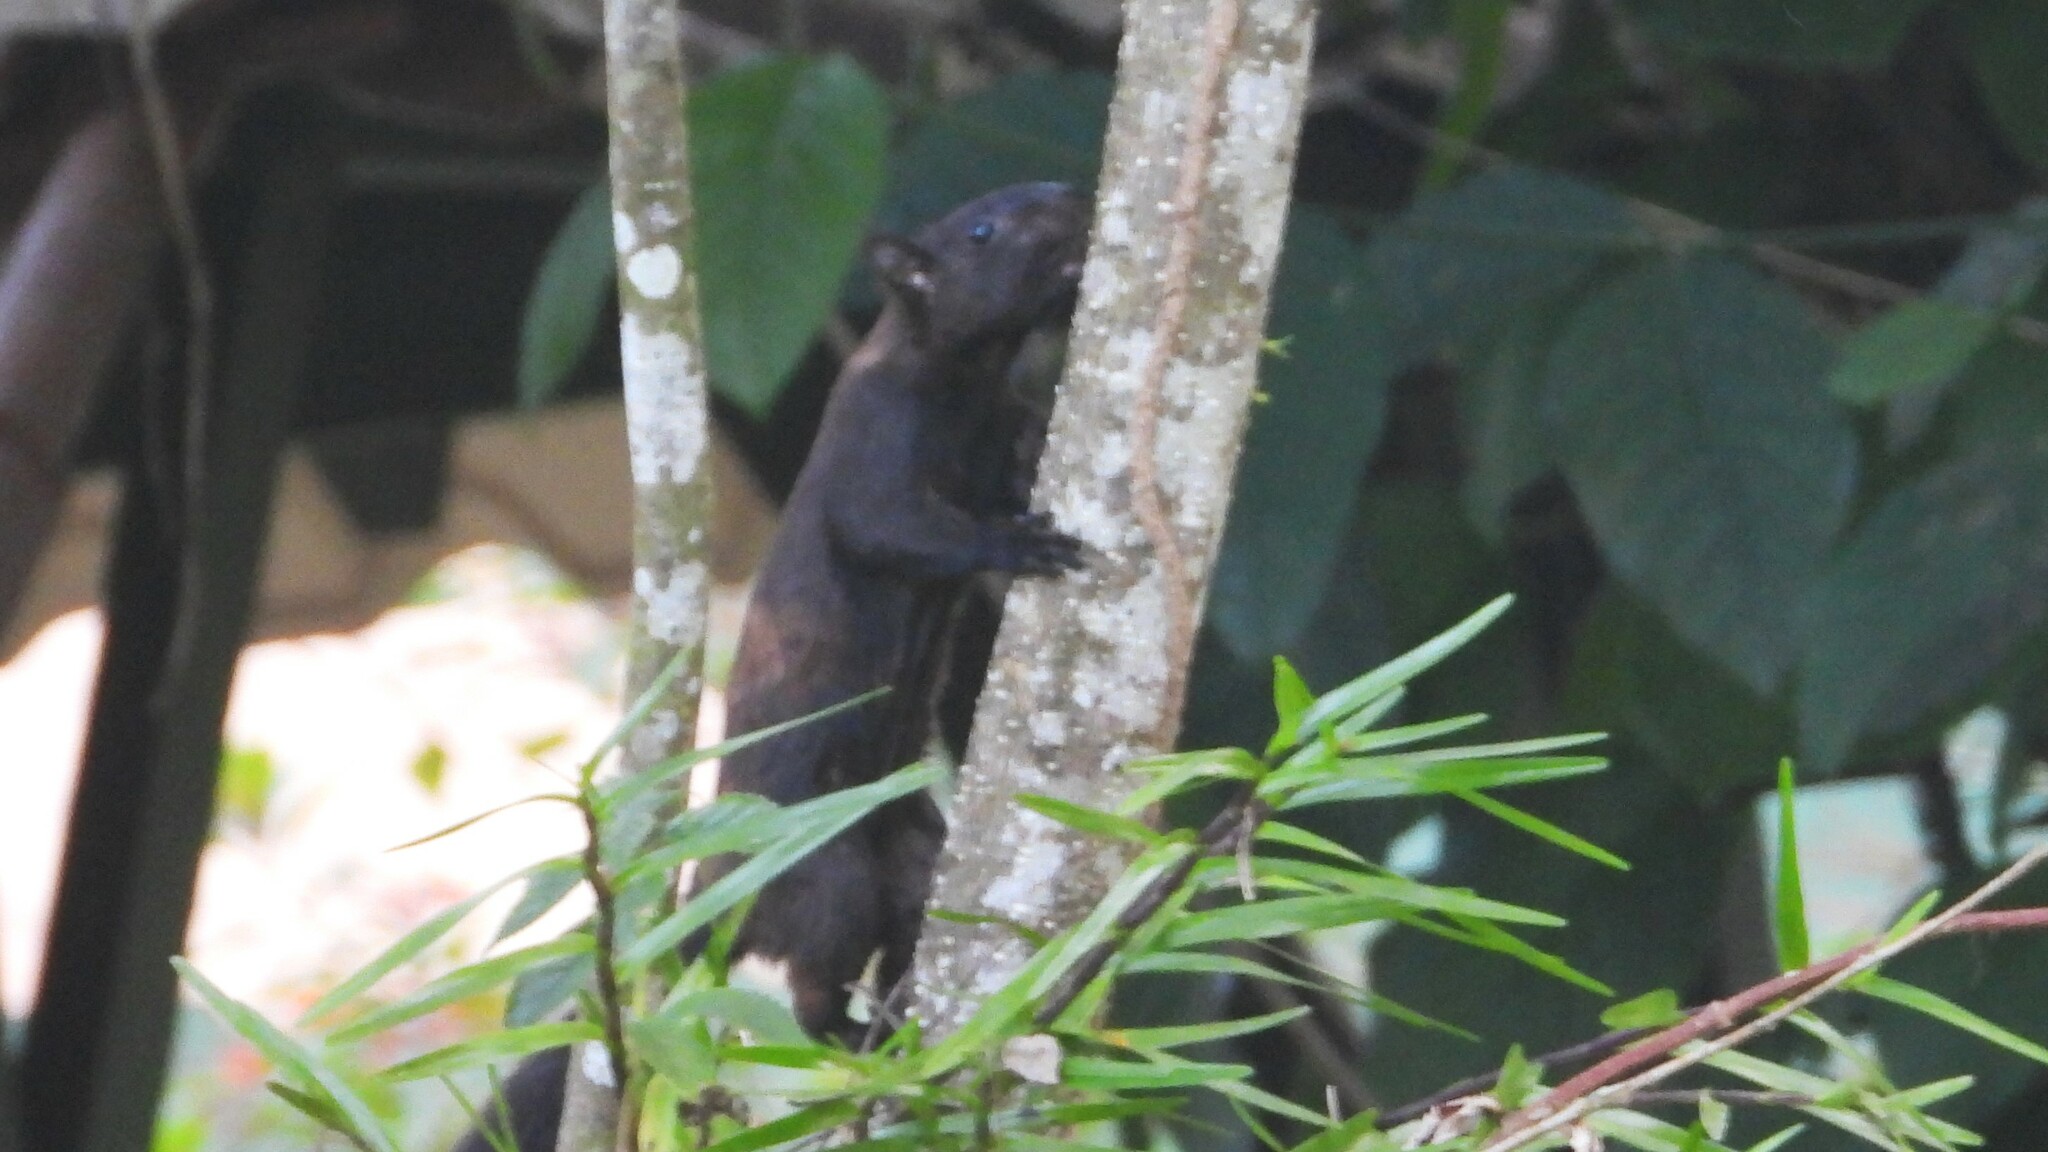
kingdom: Animalia
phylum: Chordata
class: Mammalia
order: Rodentia
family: Sciuridae
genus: Sciurus
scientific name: Sciurus variegatoides
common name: Variegated squirrel
